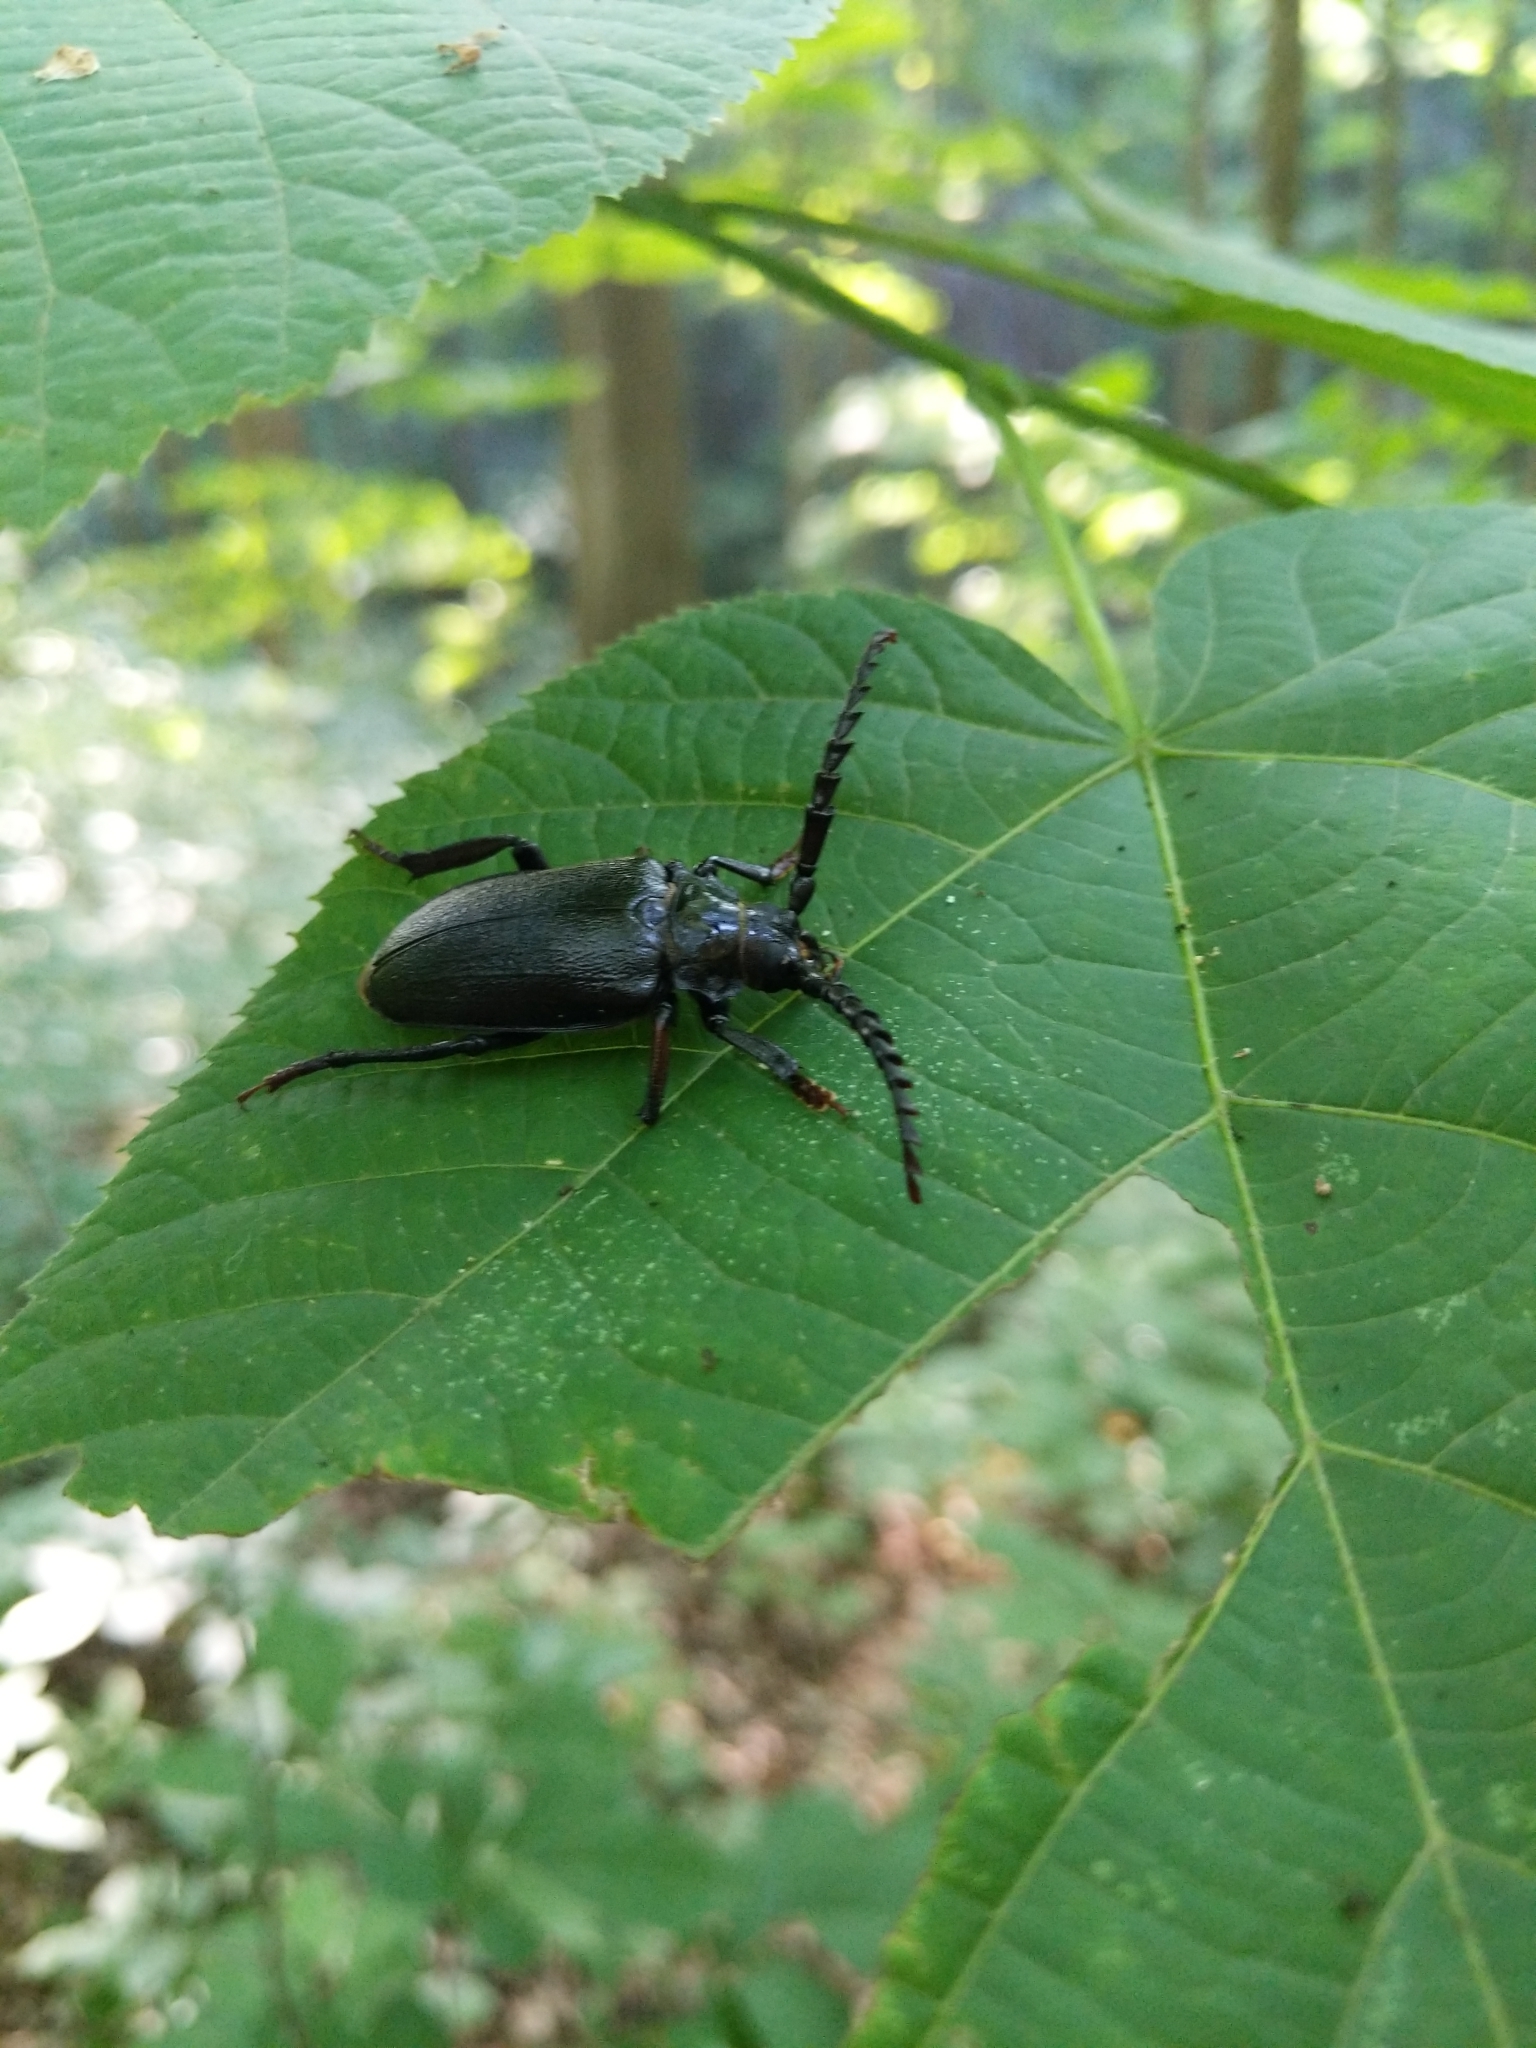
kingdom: Animalia
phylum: Arthropoda
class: Insecta
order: Coleoptera
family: Cerambycidae
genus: Prionus
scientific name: Prionus laticollis
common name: Broad necked prionus
